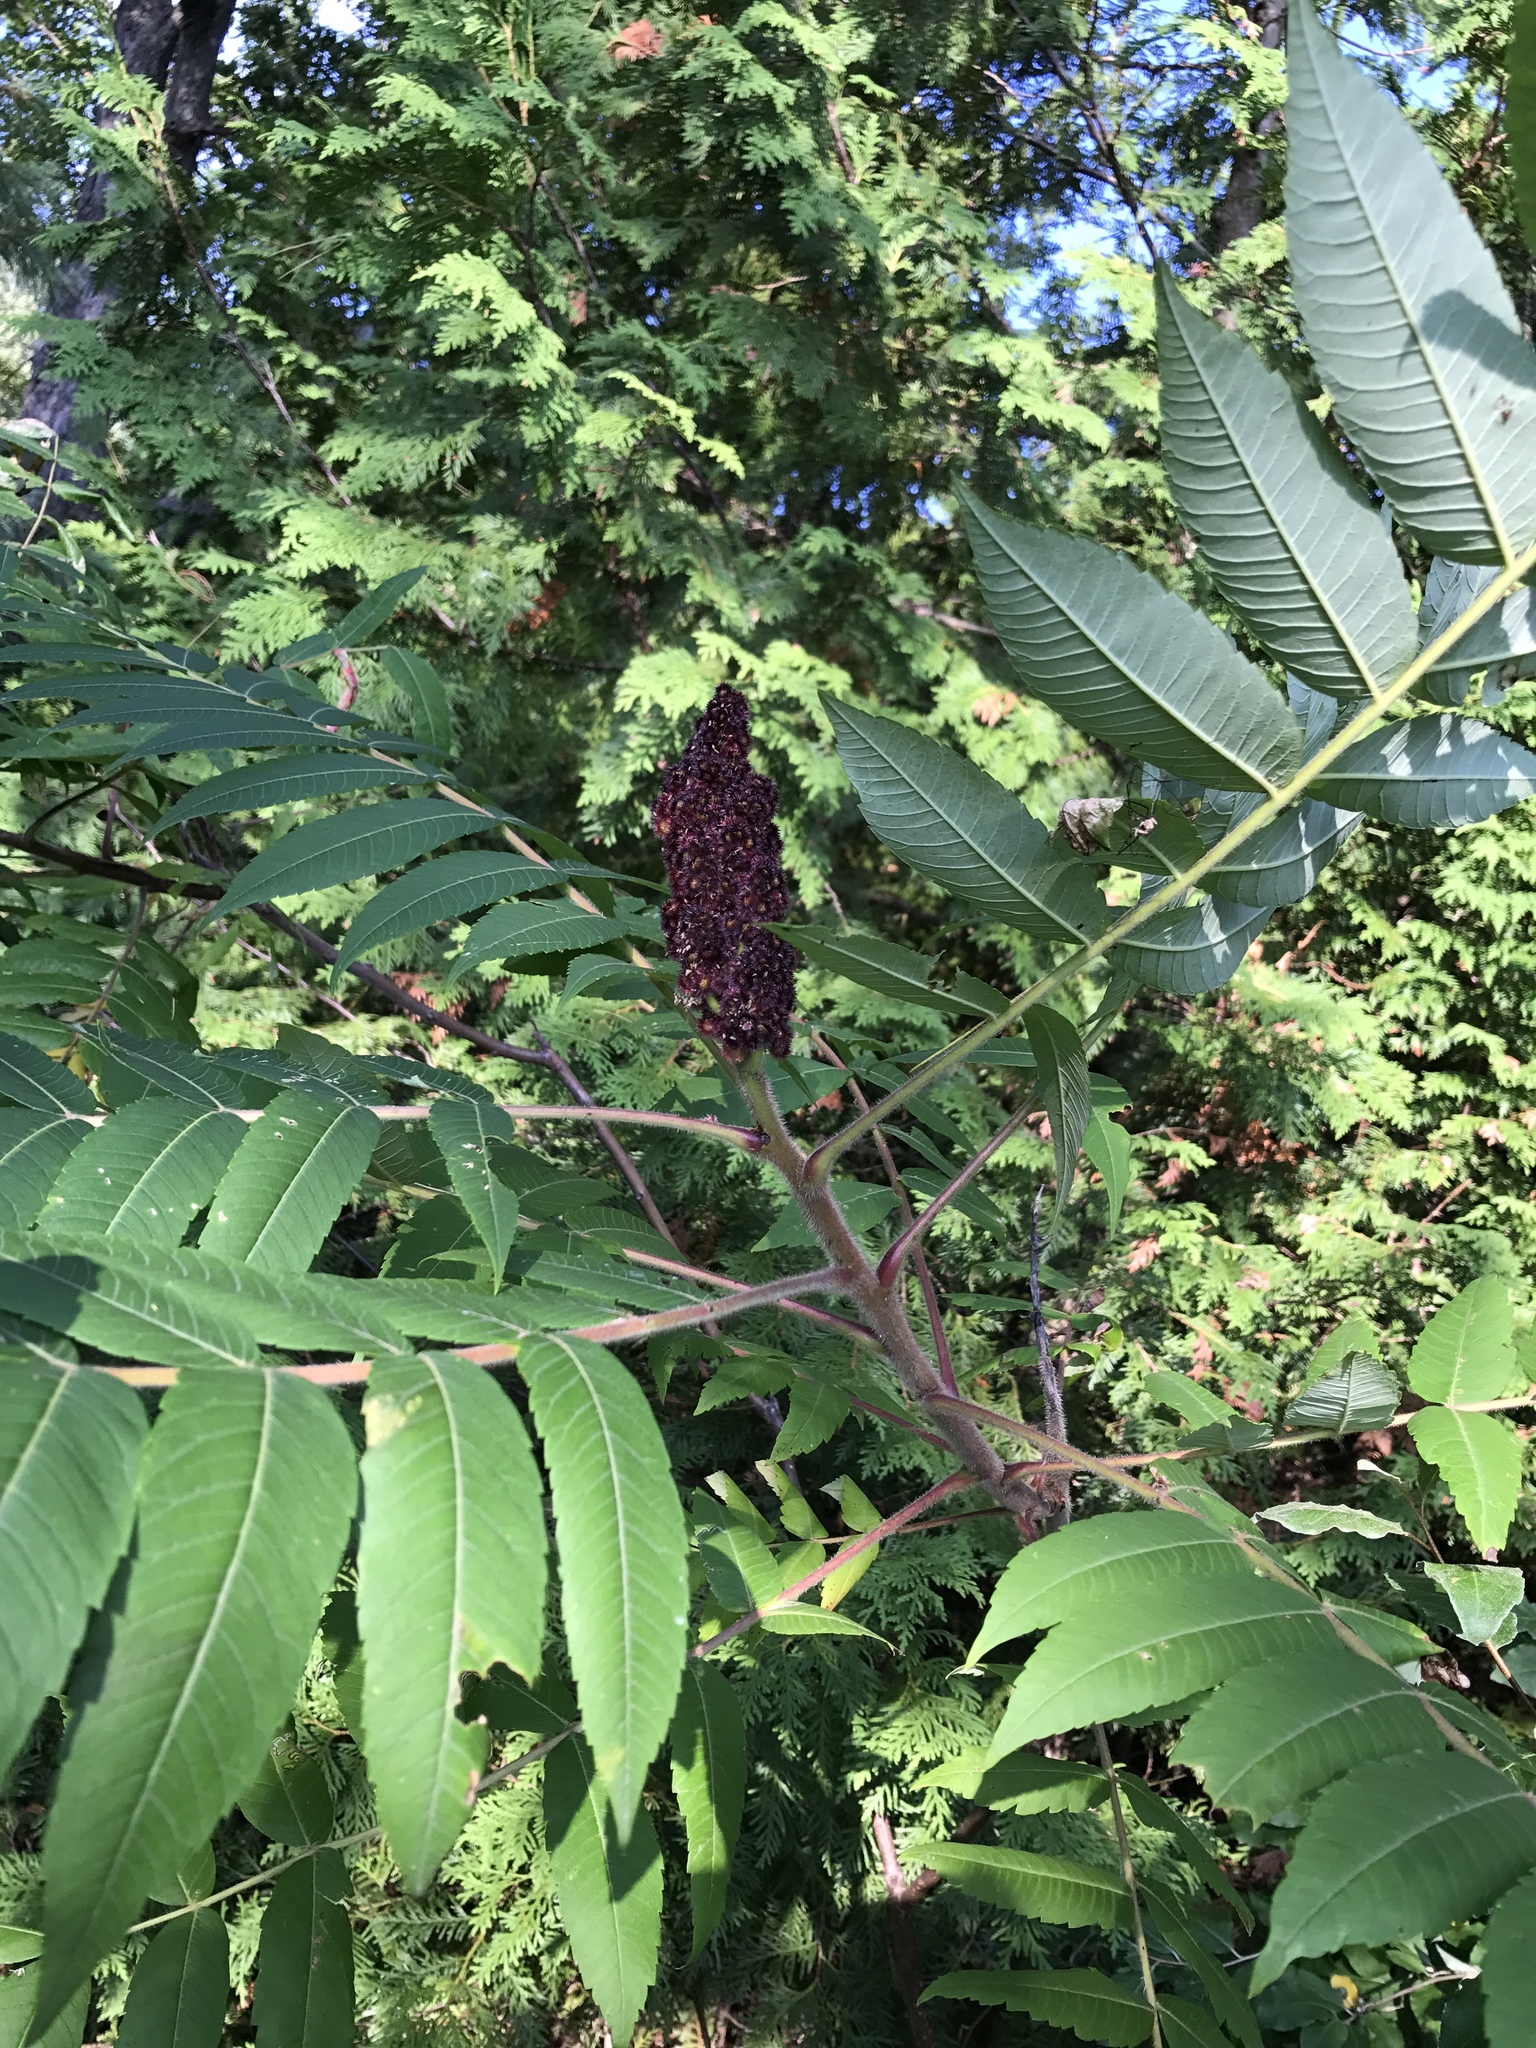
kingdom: Plantae
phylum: Tracheophyta
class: Magnoliopsida
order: Sapindales
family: Anacardiaceae
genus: Rhus
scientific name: Rhus typhina
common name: Staghorn sumac
